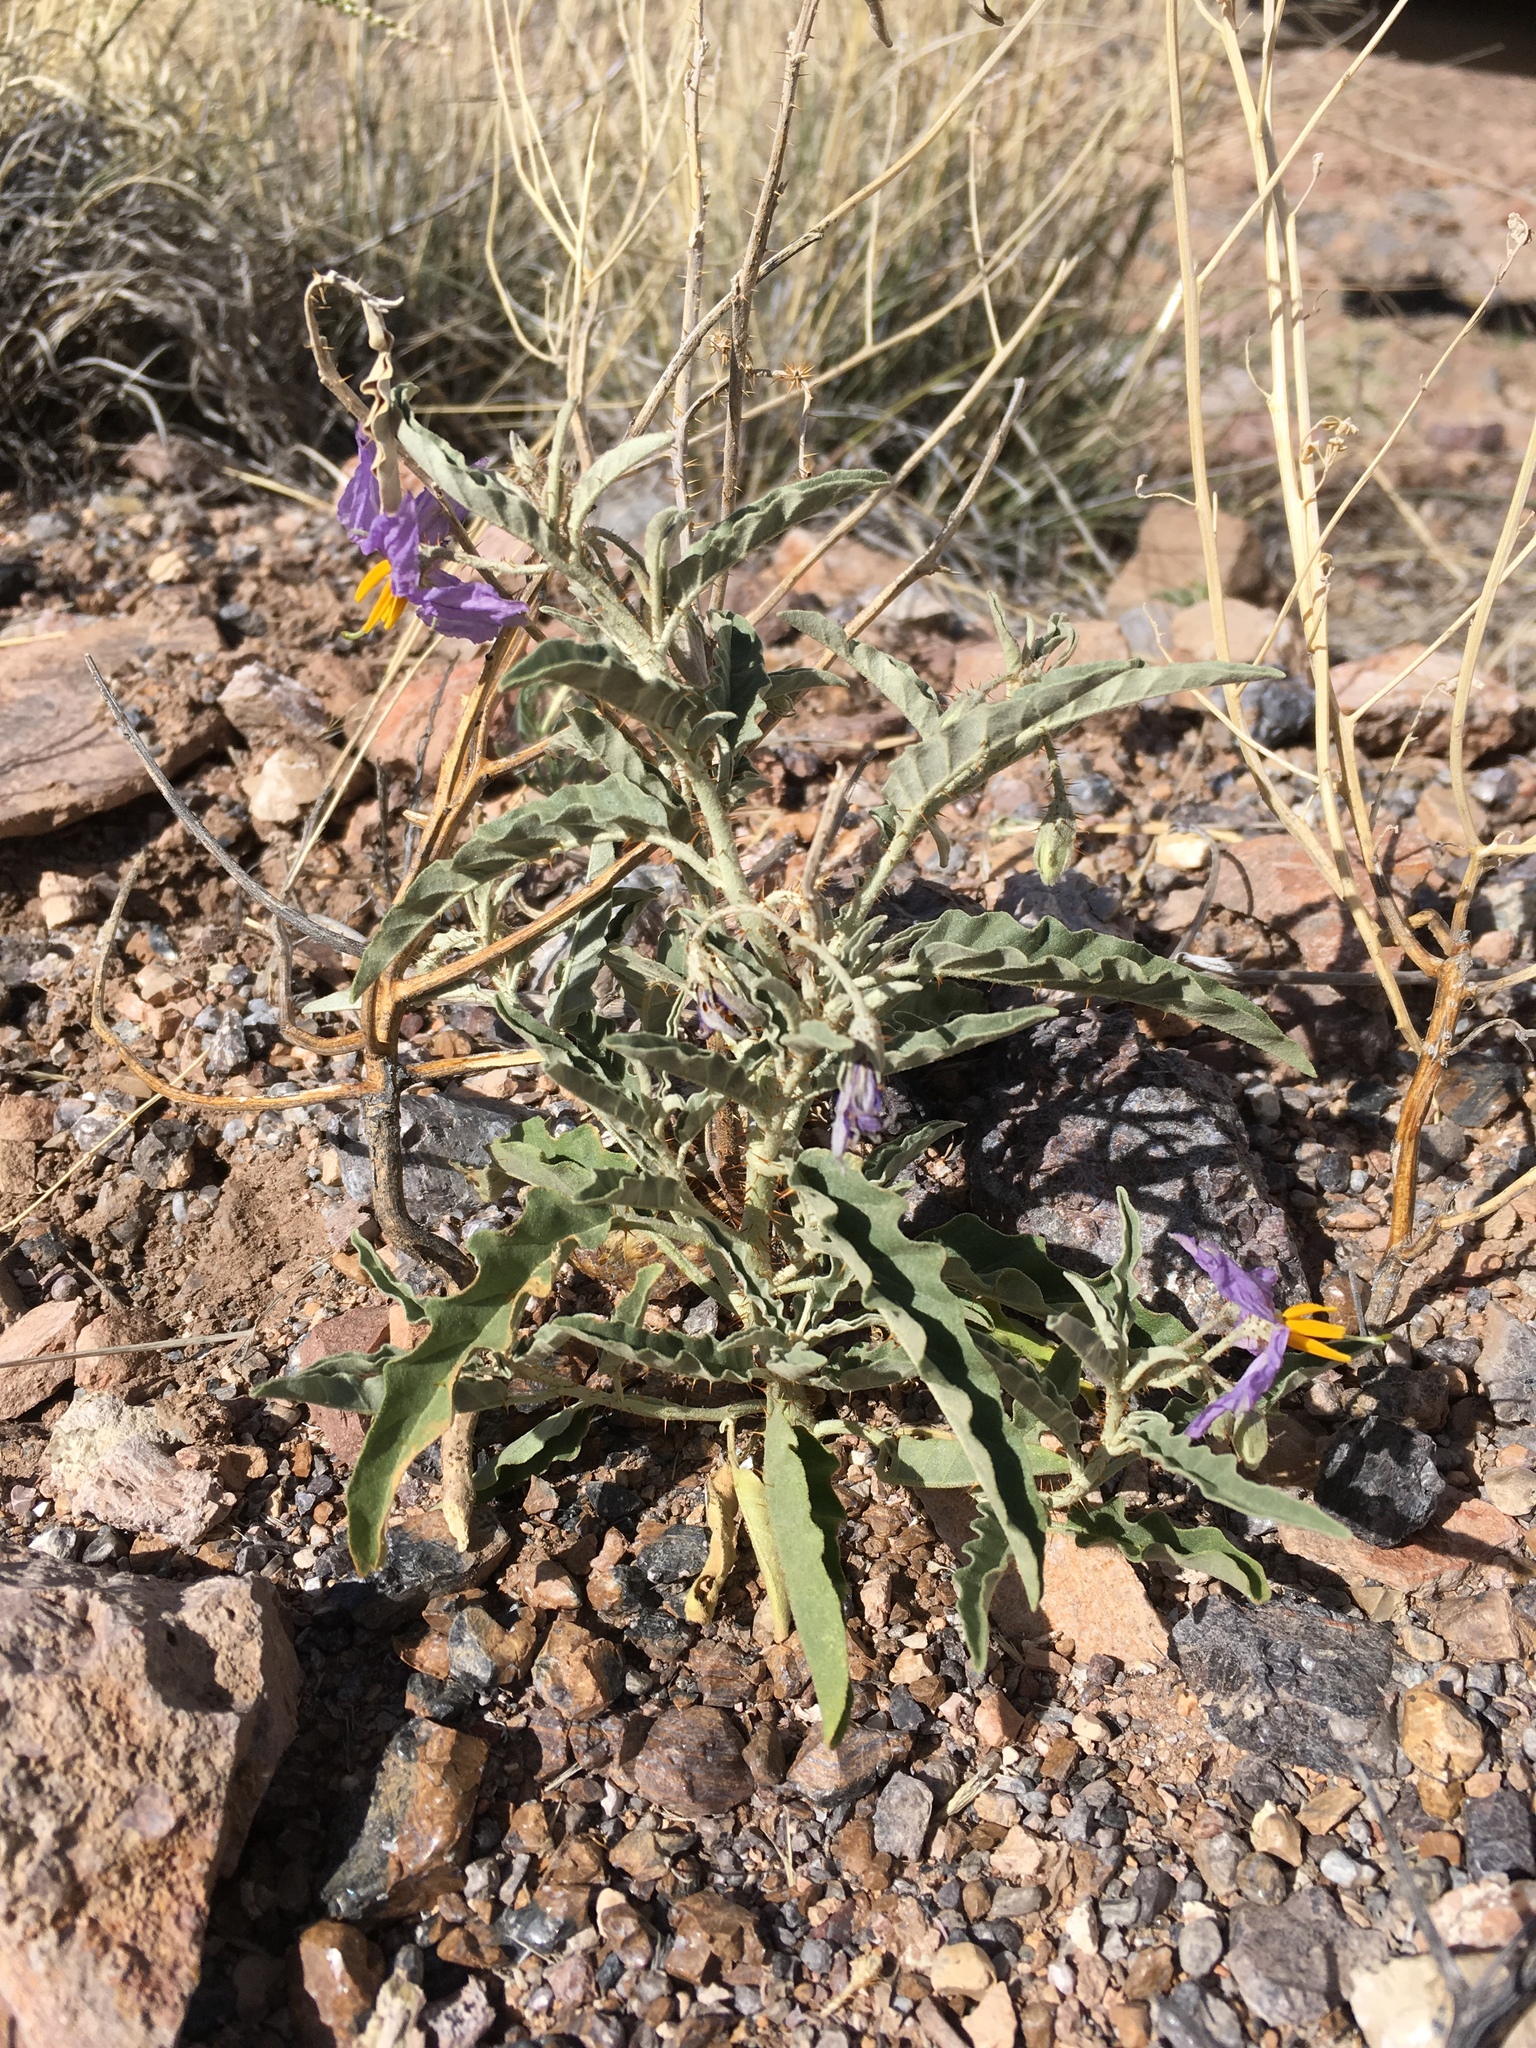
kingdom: Plantae
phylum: Tracheophyta
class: Magnoliopsida
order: Solanales
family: Solanaceae
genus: Solanum
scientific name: Solanum elaeagnifolium
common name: Silverleaf nightshade
